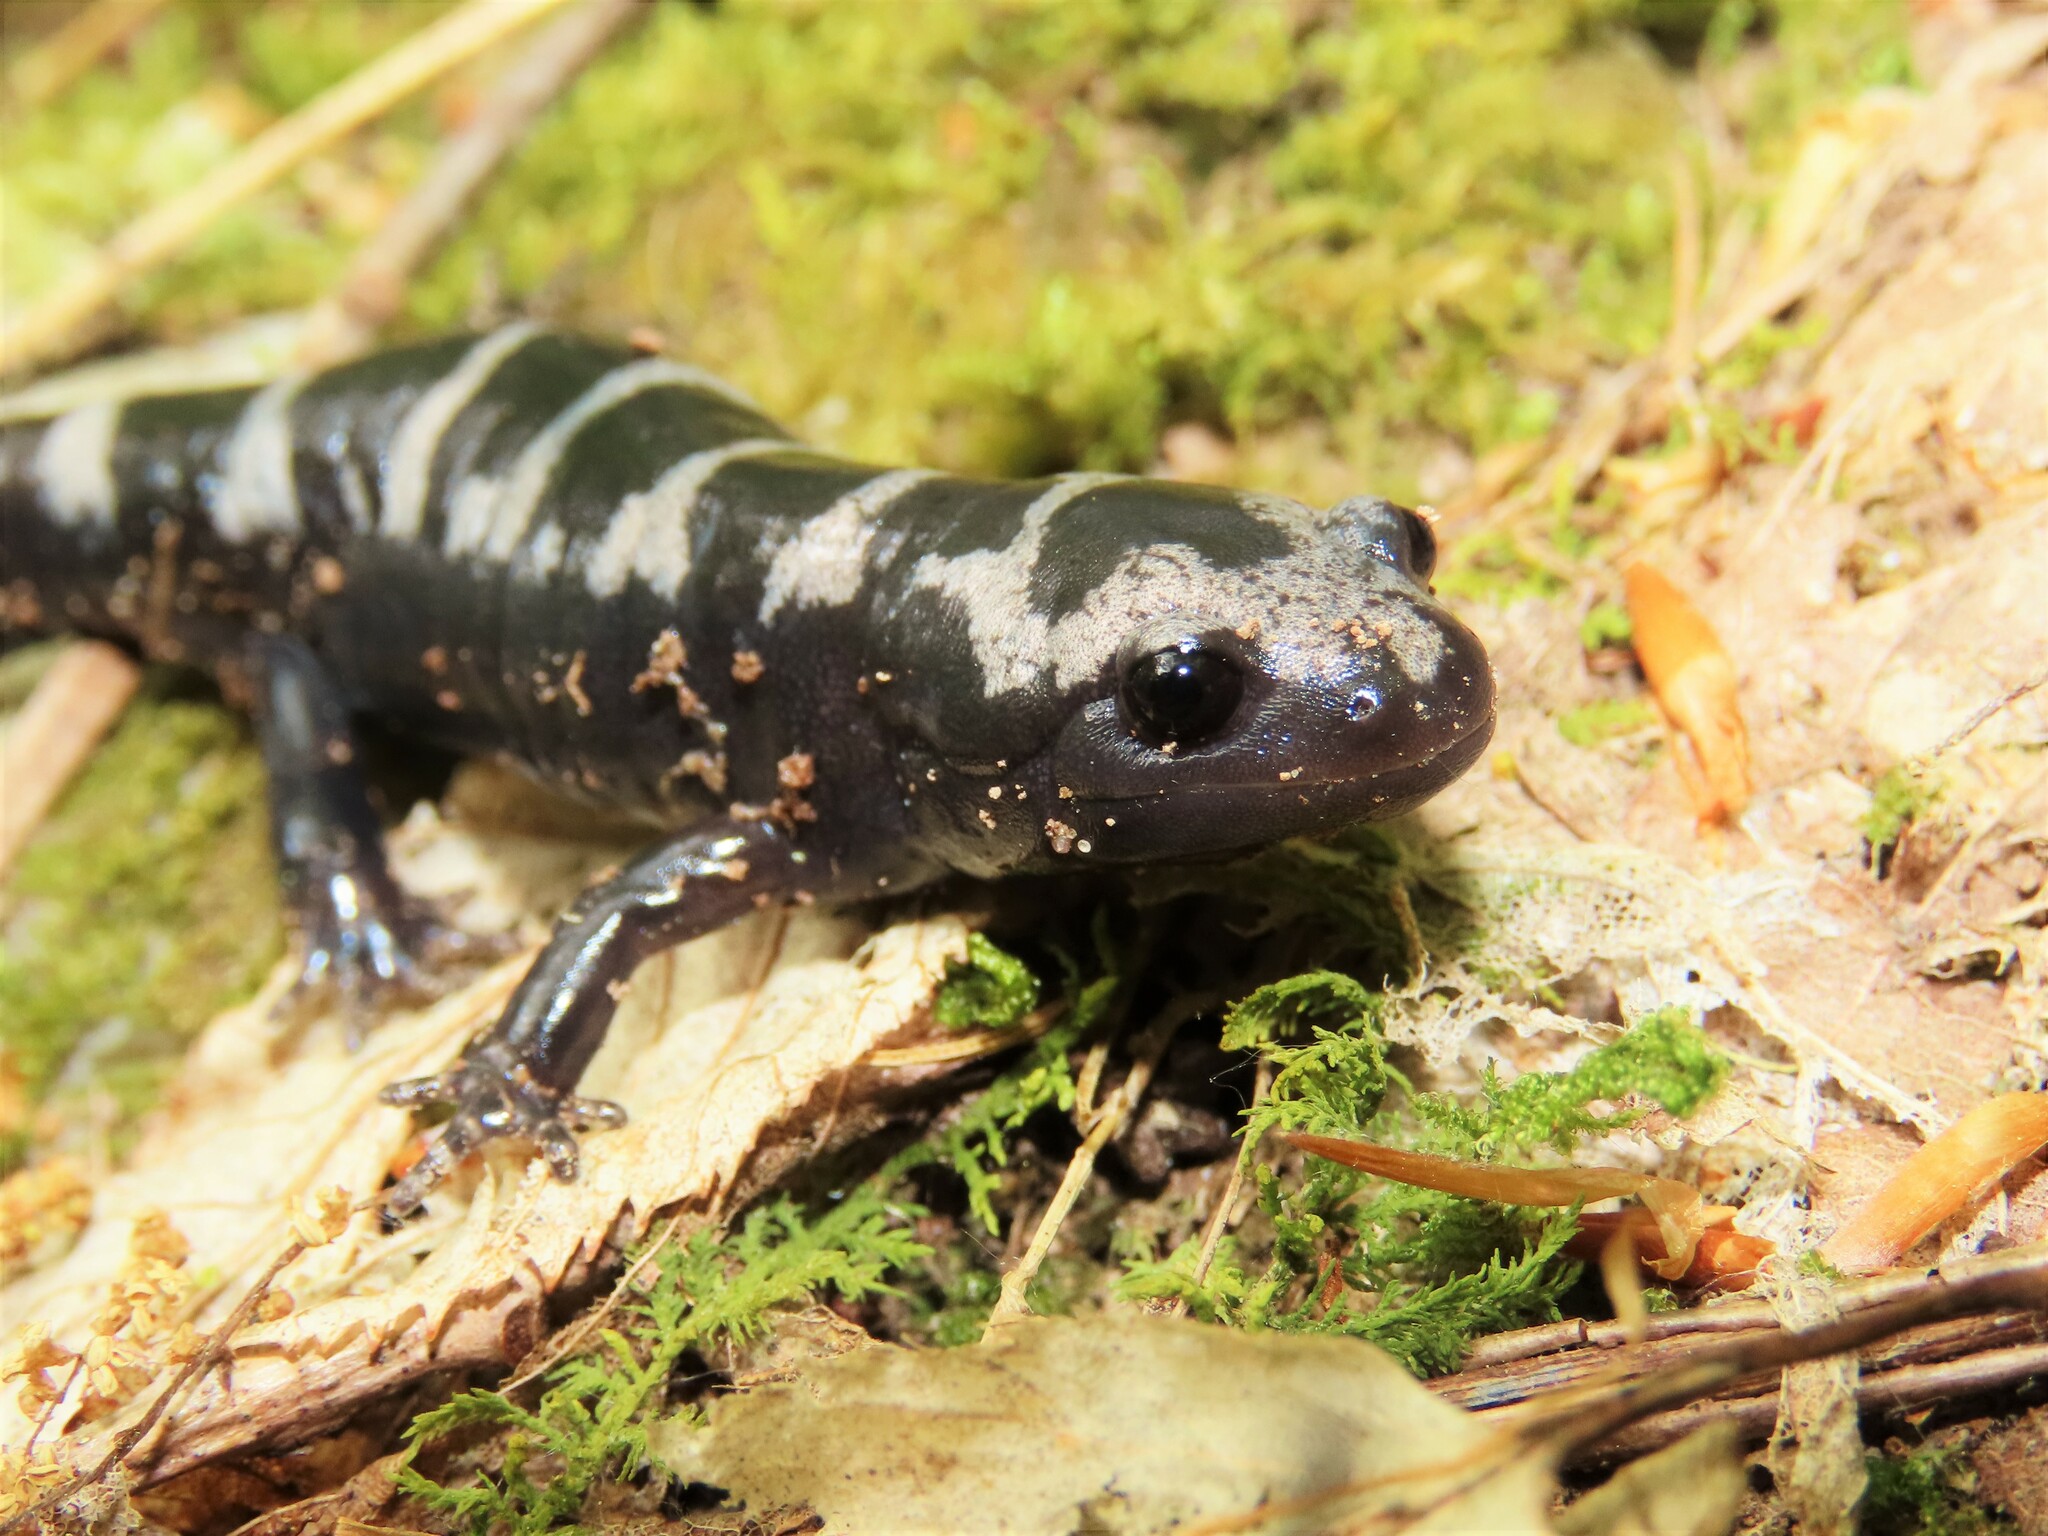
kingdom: Animalia
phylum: Chordata
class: Amphibia
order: Caudata
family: Ambystomatidae
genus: Ambystoma
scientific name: Ambystoma opacum
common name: Marbled salamander
